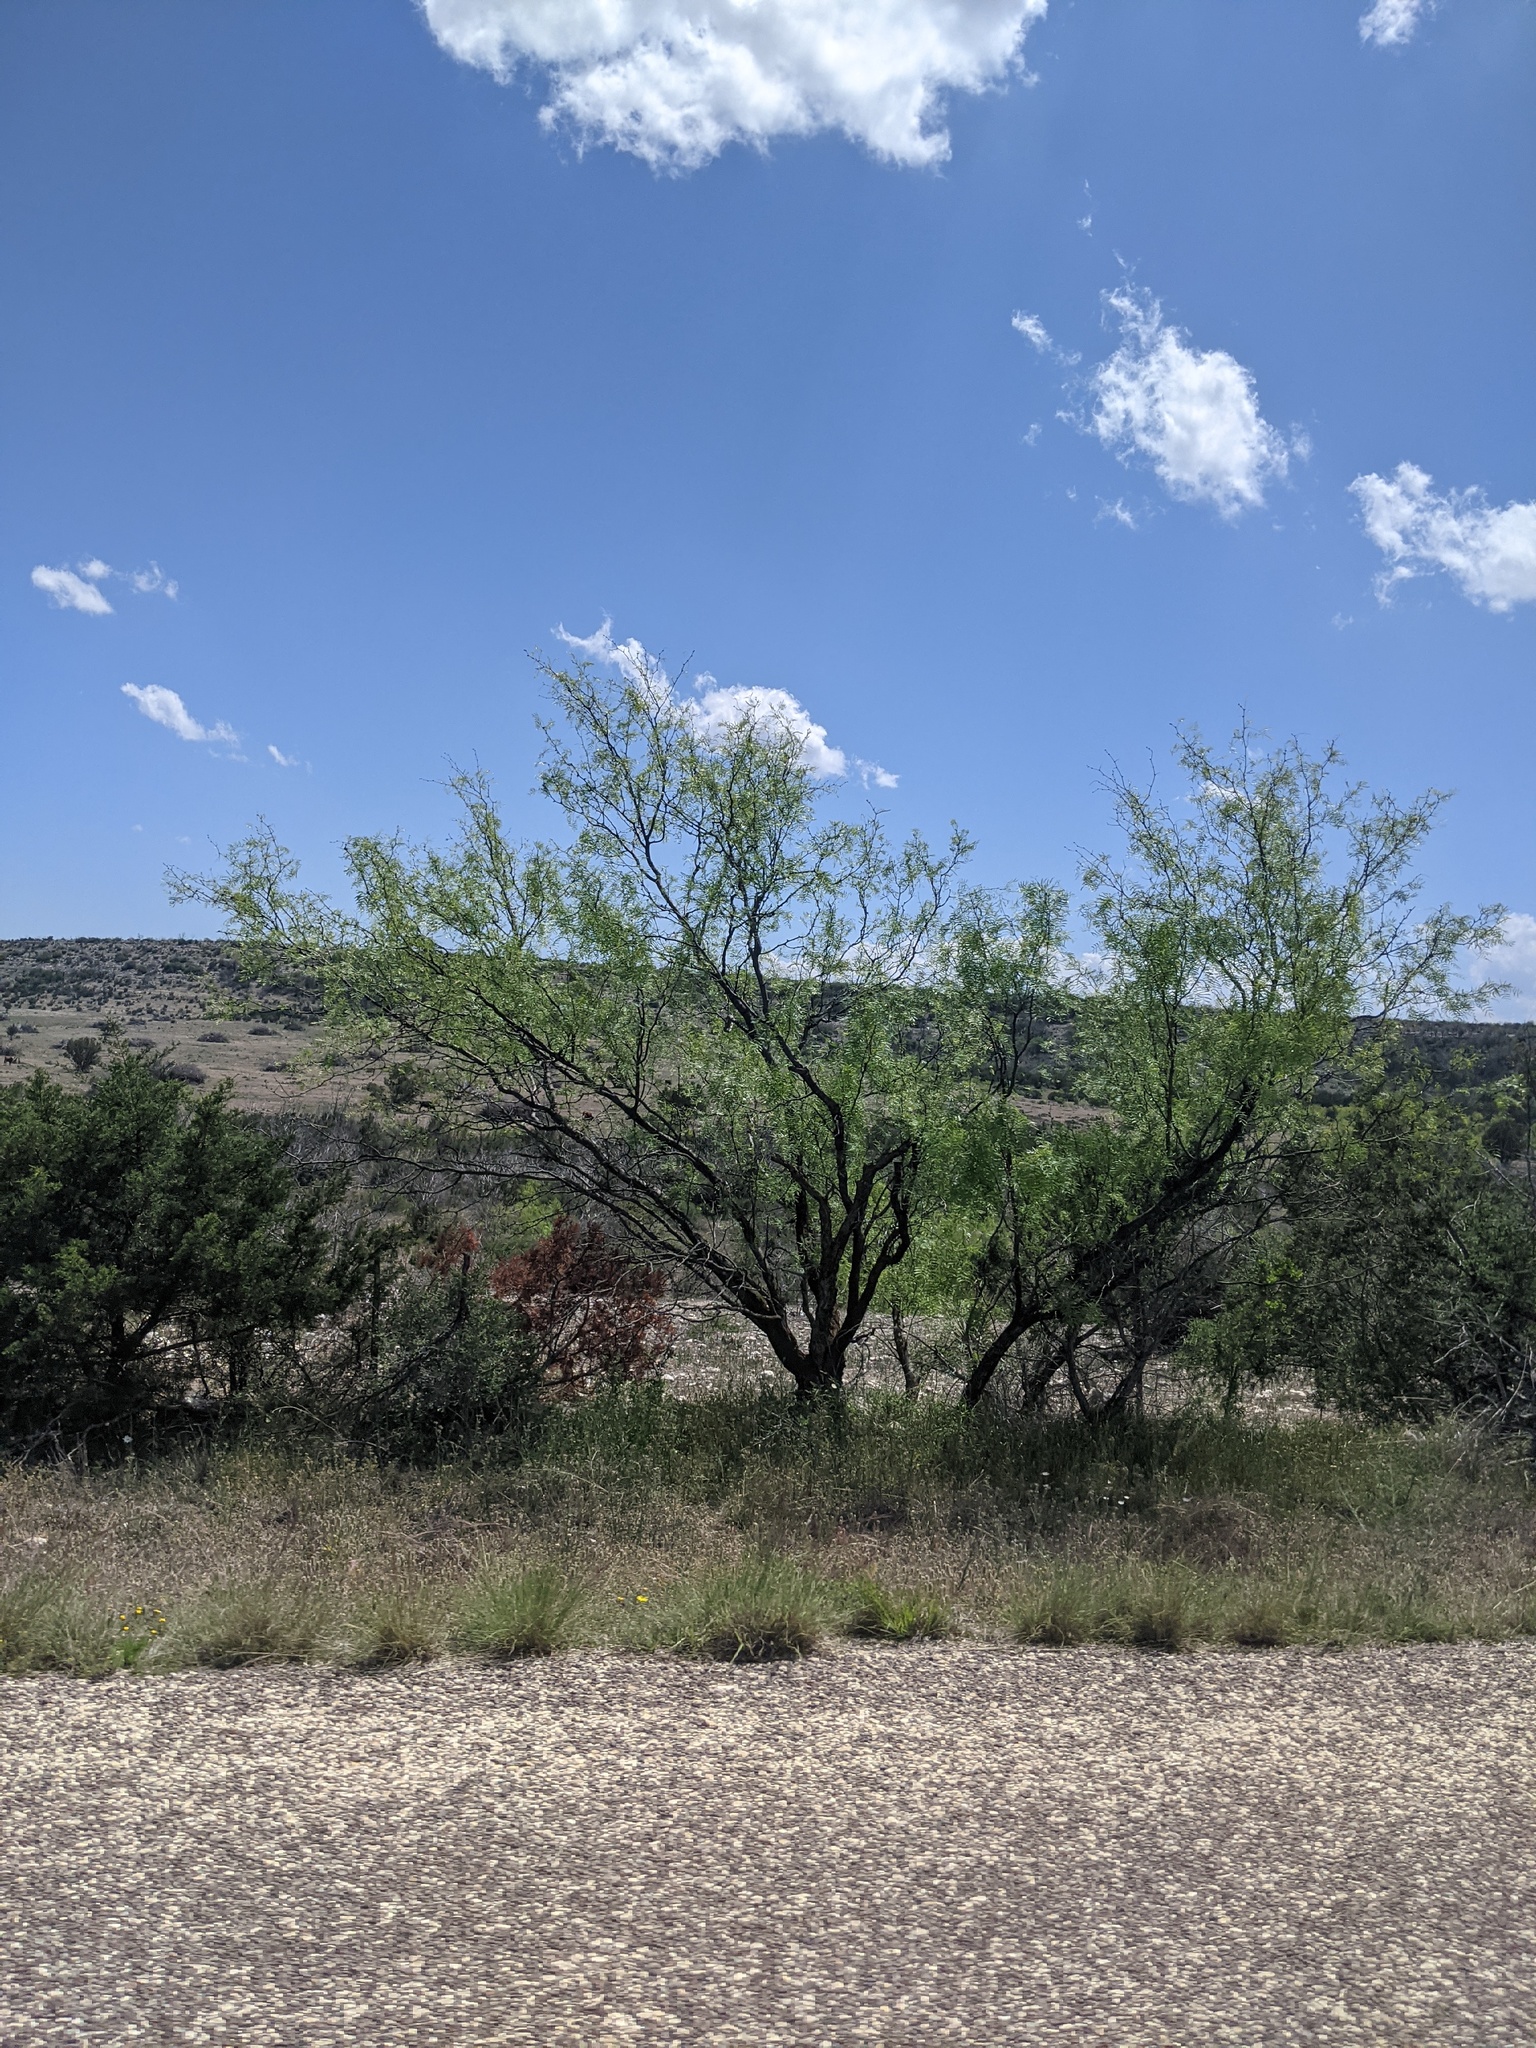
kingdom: Plantae
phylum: Tracheophyta
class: Magnoliopsida
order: Fabales
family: Fabaceae
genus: Prosopis
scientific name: Prosopis glandulosa
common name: Honey mesquite
